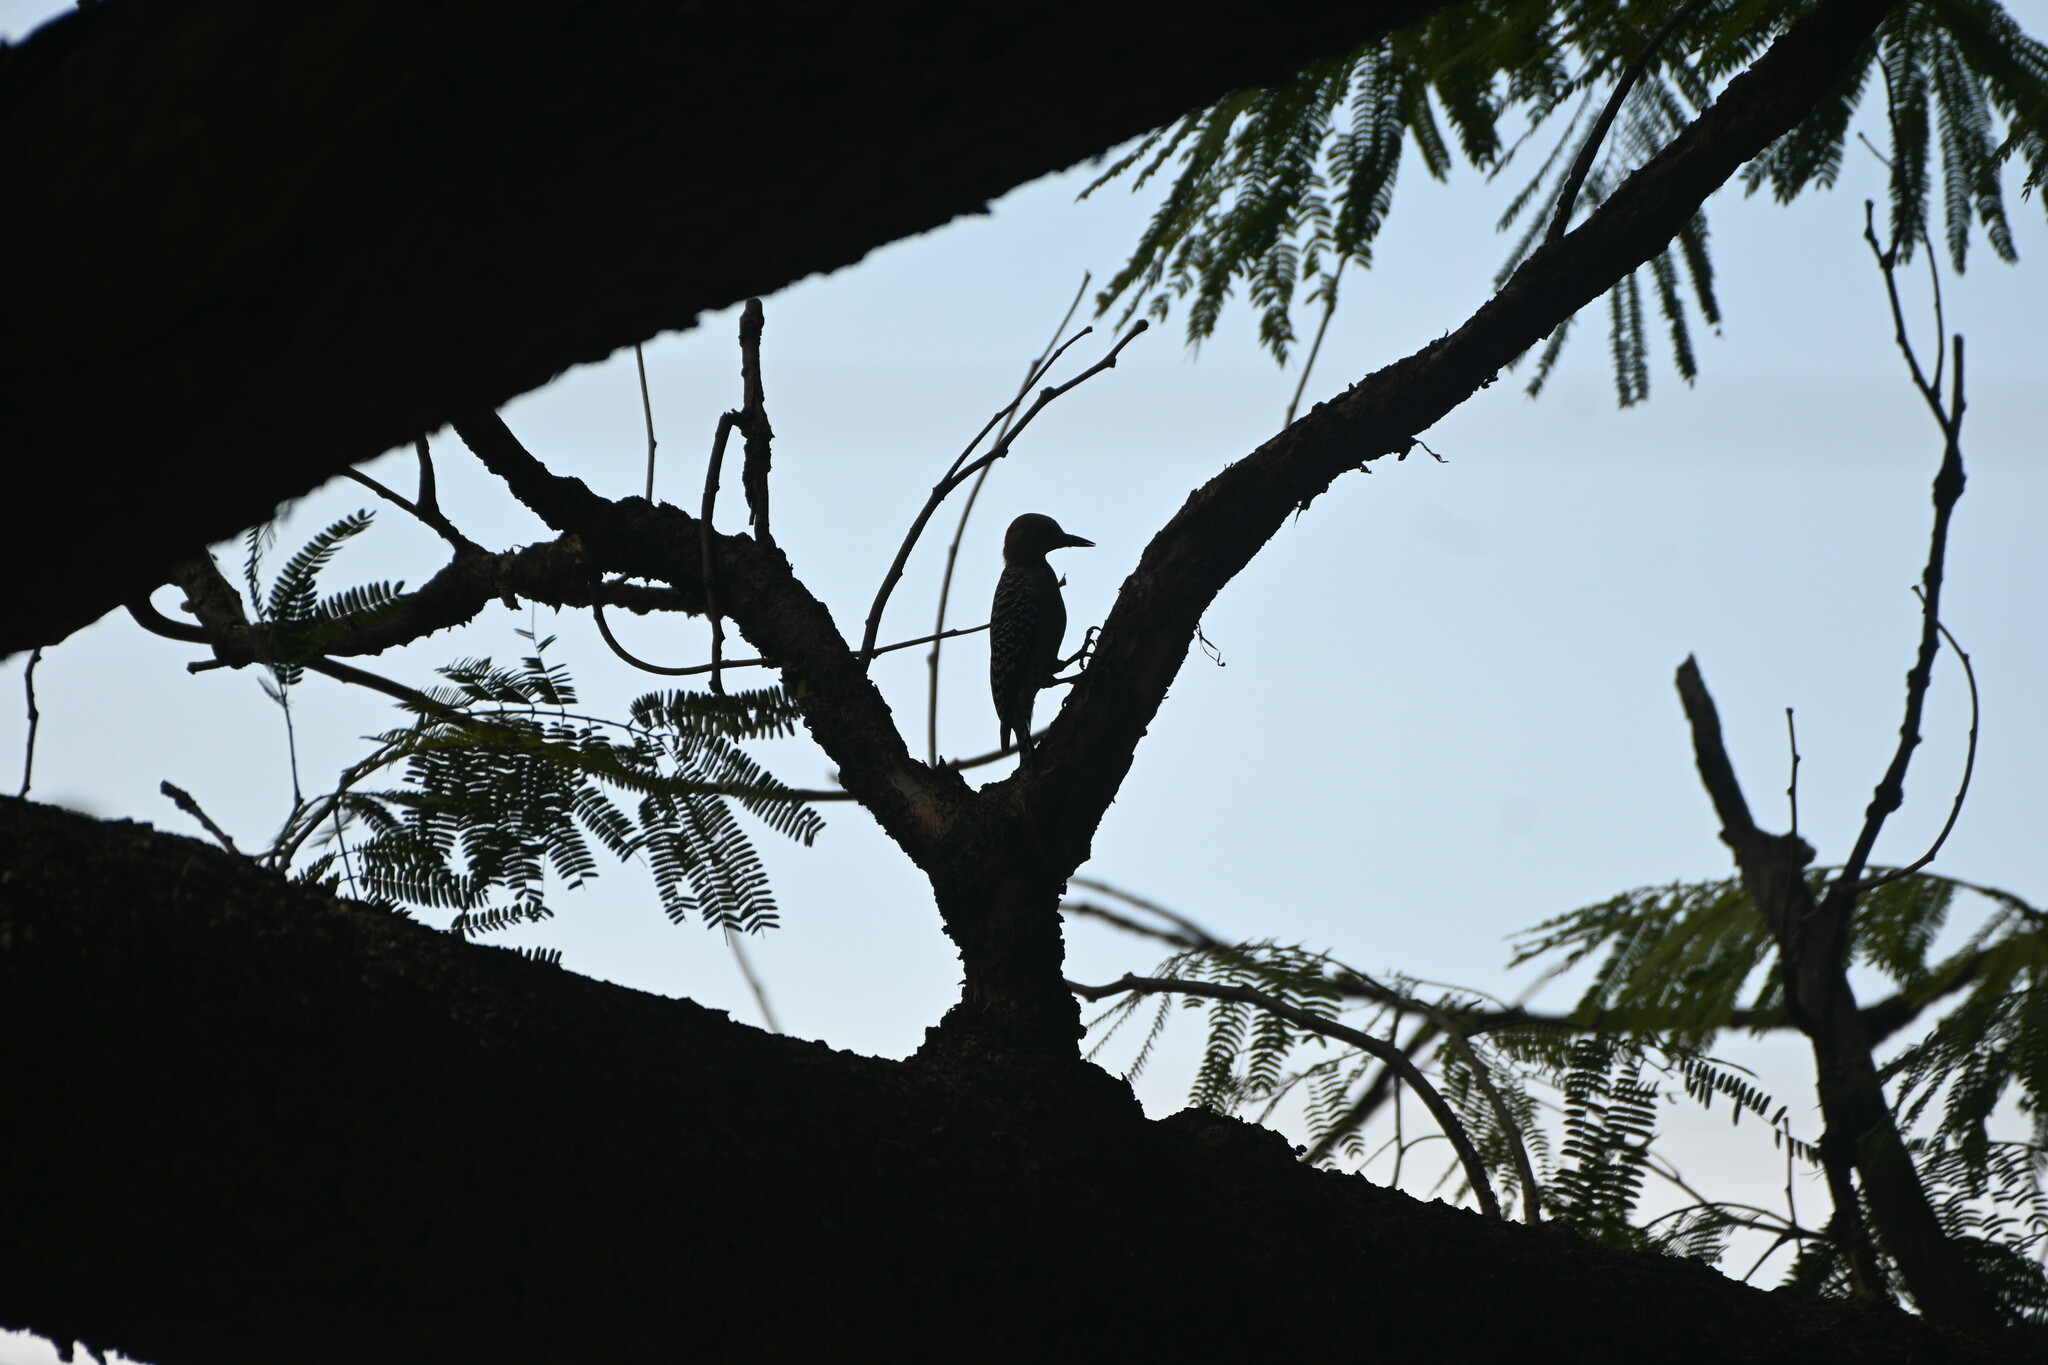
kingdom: Animalia
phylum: Chordata
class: Aves
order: Piciformes
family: Picidae
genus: Melanerpes
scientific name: Melanerpes rubricapillus
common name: Red-crowned woodpecker
